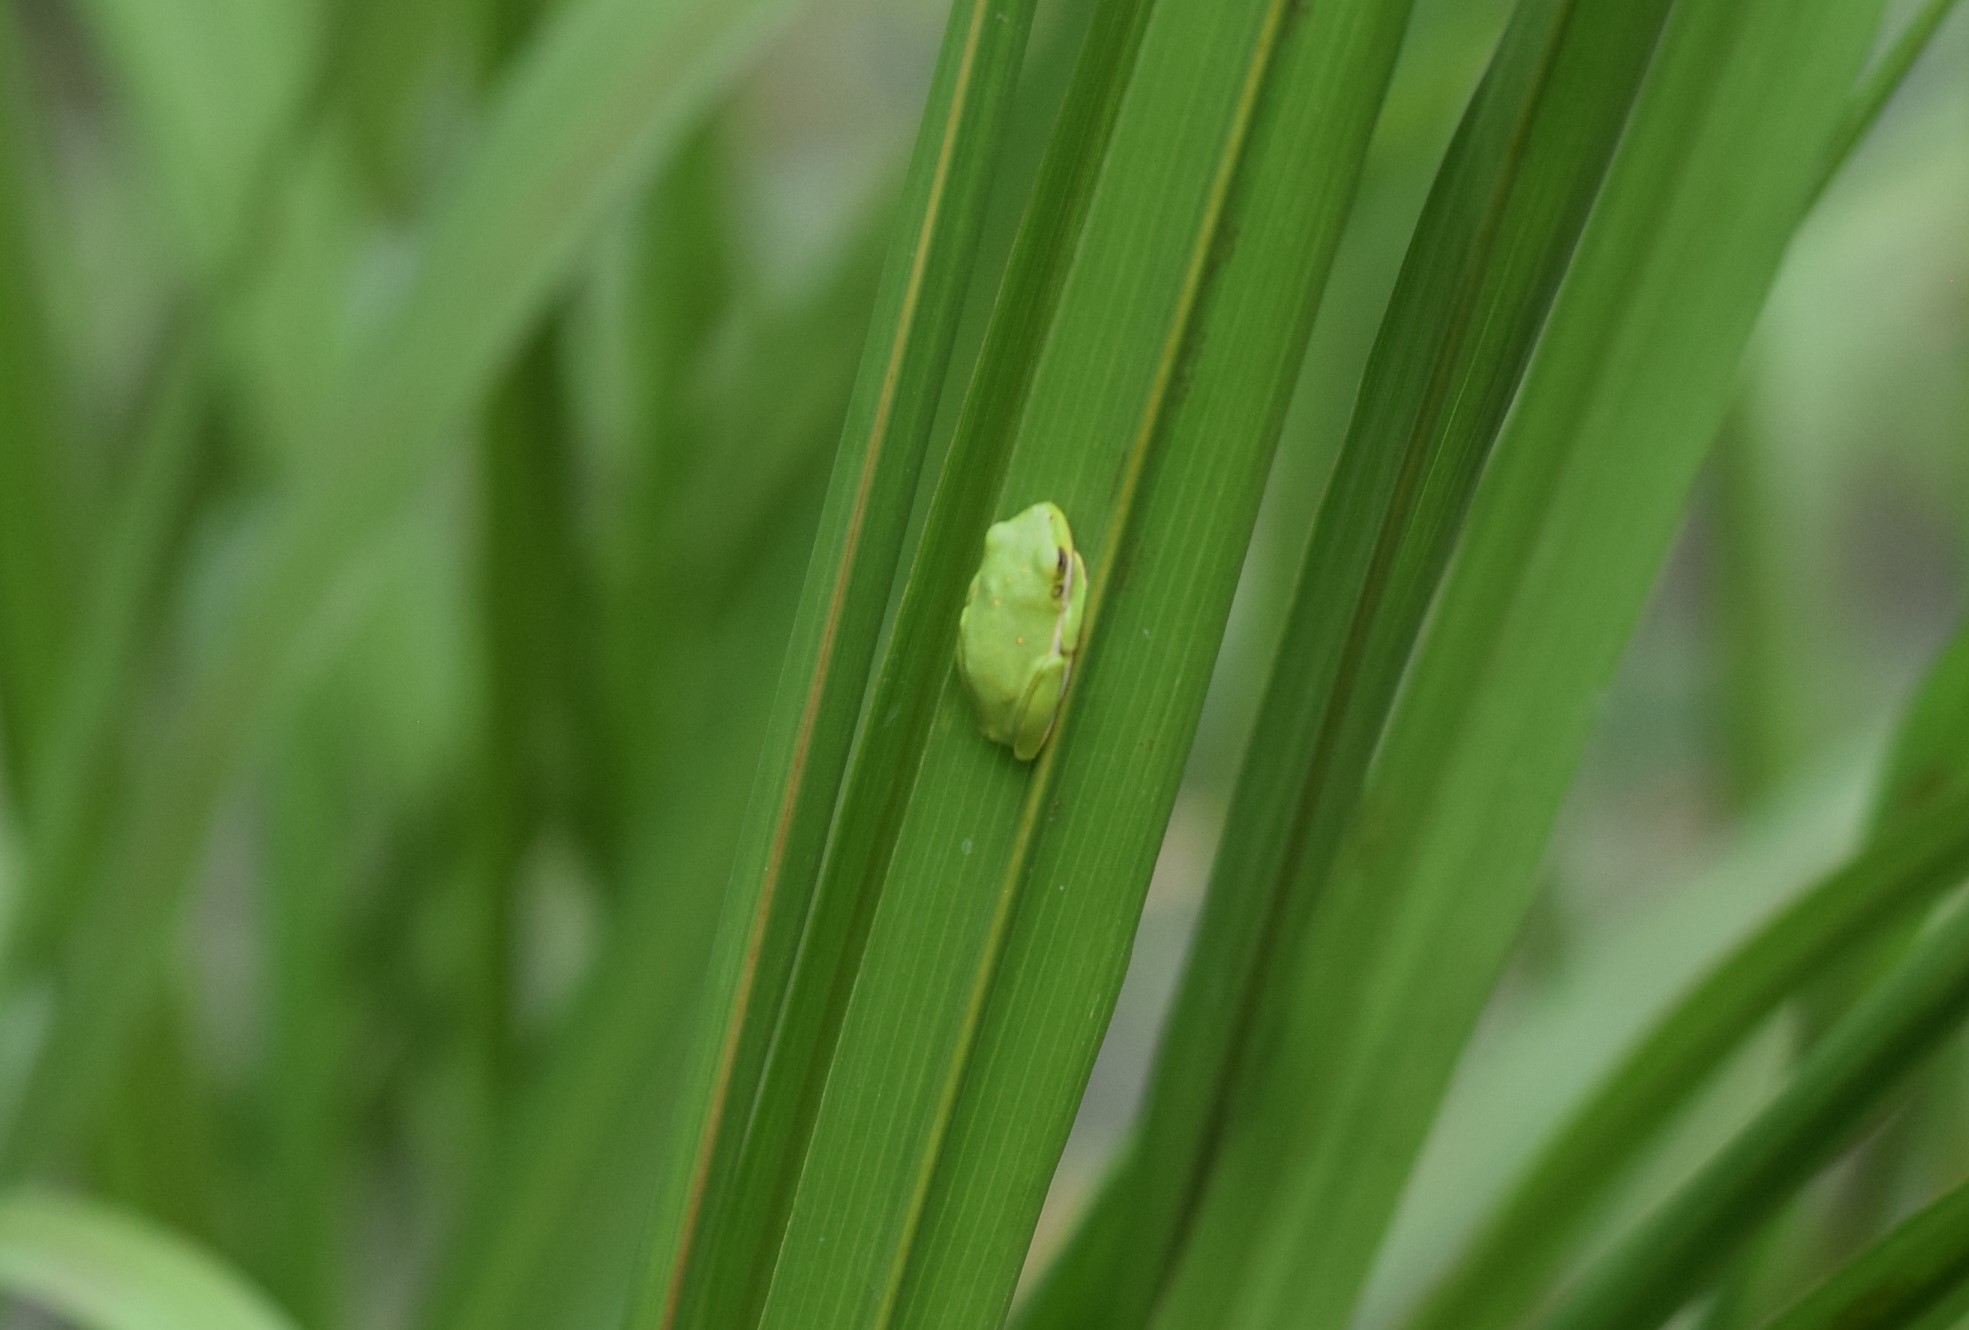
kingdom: Animalia
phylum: Chordata
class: Amphibia
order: Anura
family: Hylidae
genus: Dryophytes
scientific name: Dryophytes cinereus
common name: Green treefrog
